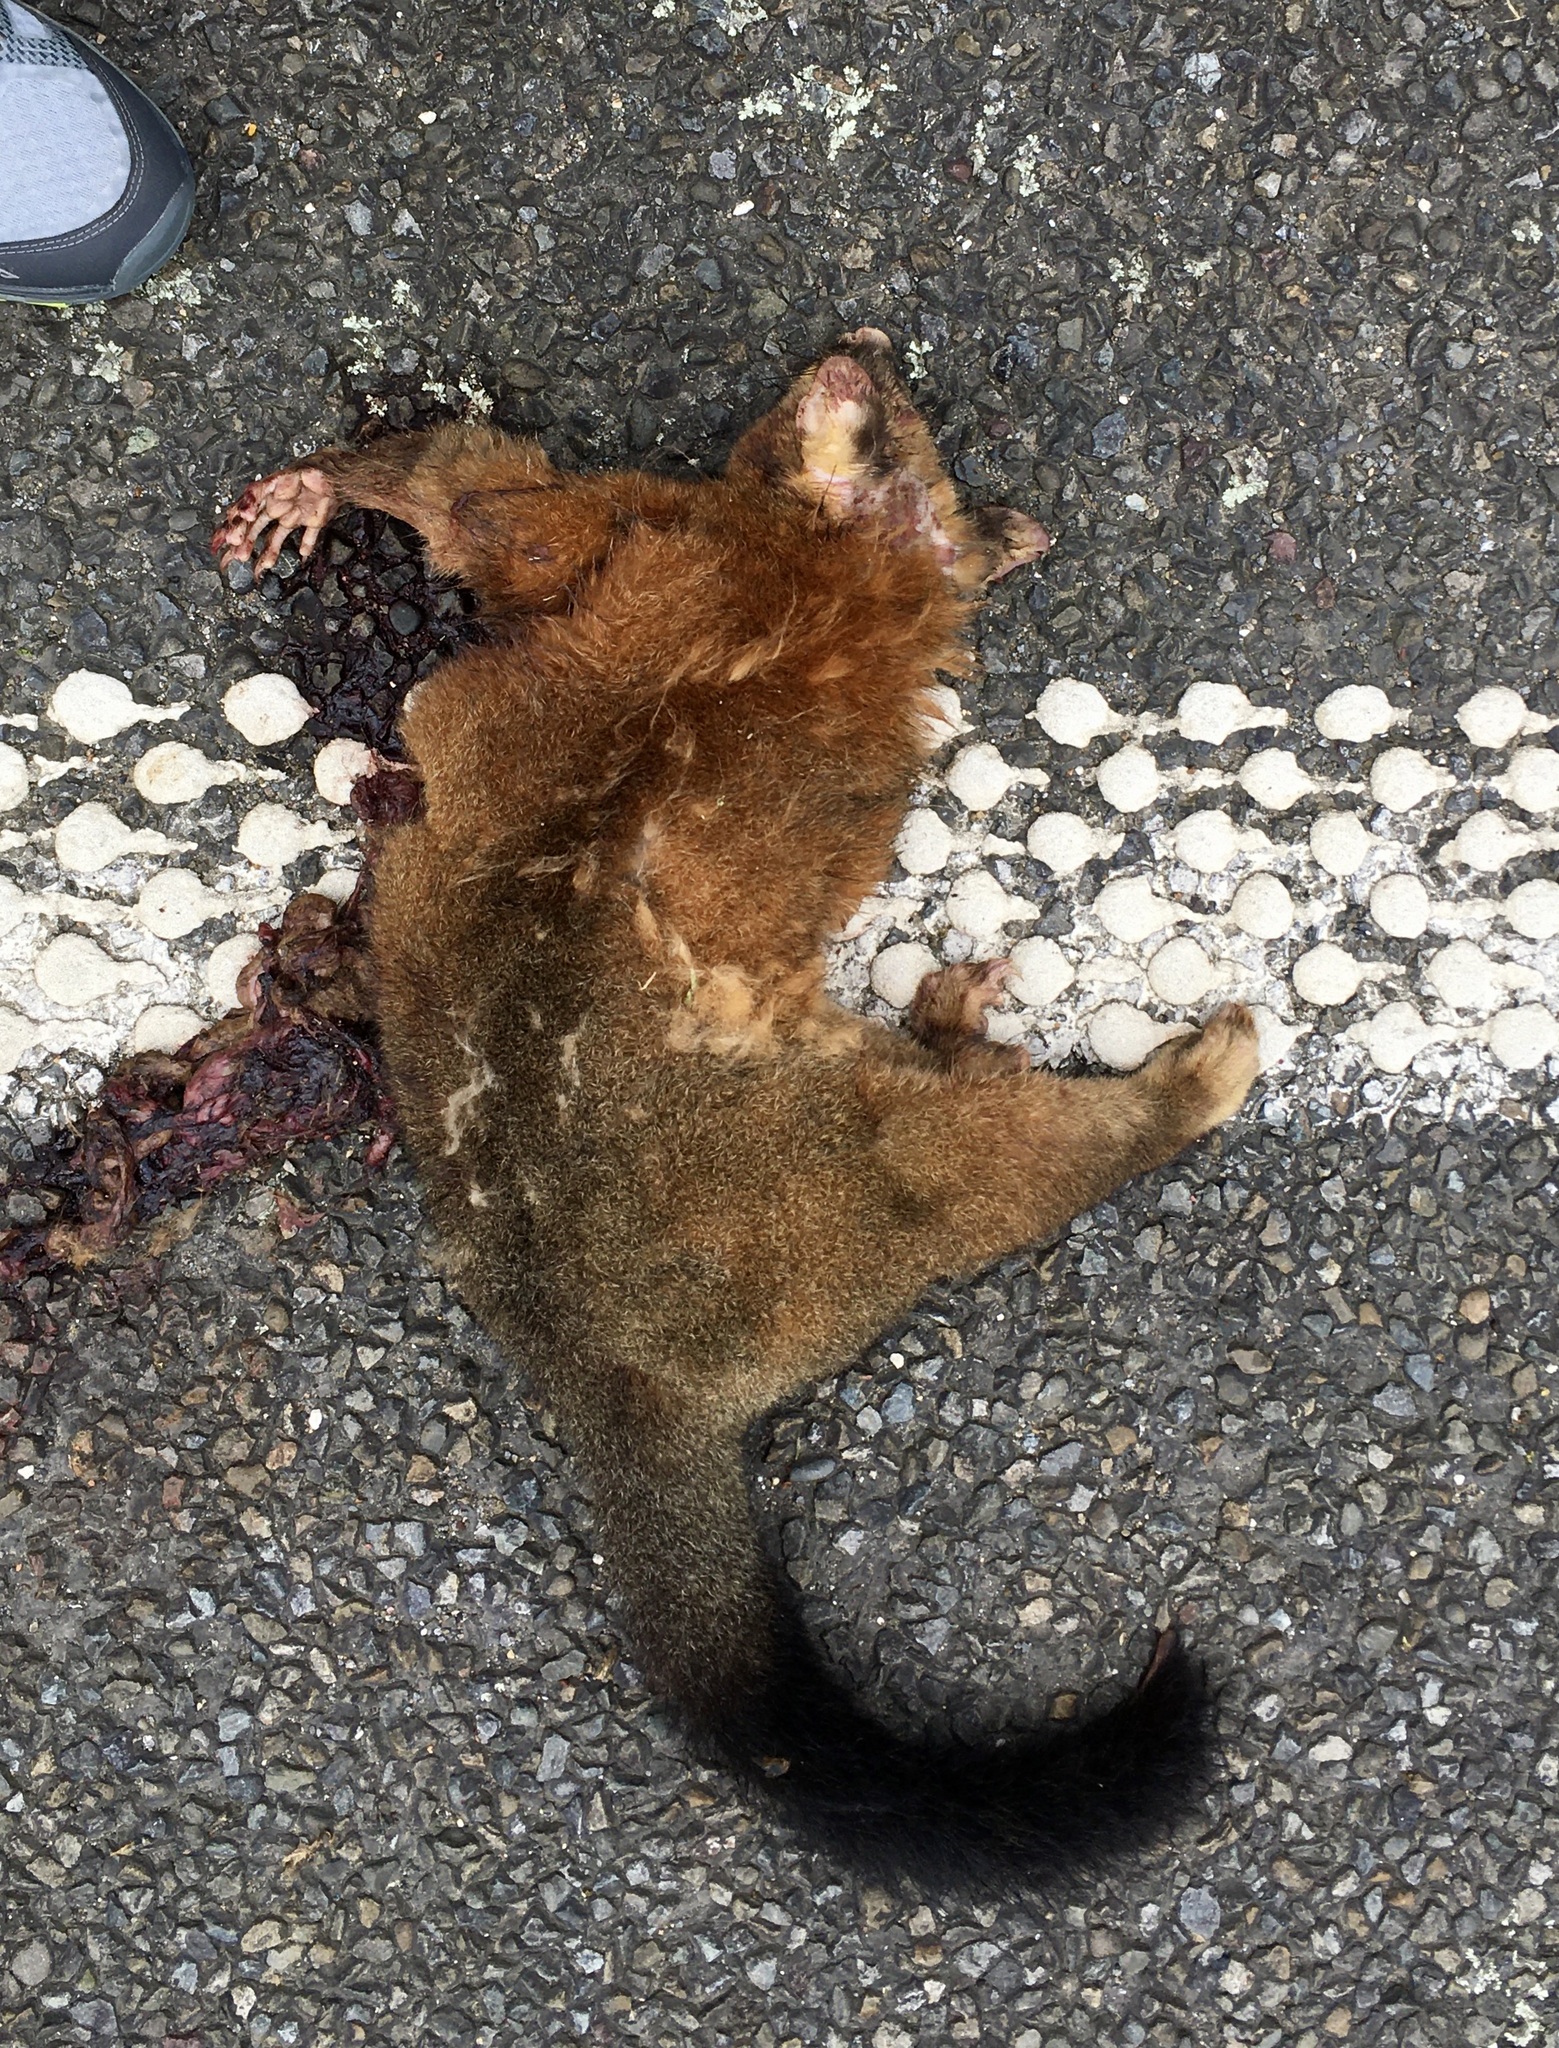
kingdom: Animalia
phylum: Chordata
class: Mammalia
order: Diprotodontia
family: Phalangeridae
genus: Trichosurus
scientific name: Trichosurus vulpecula
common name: Common brushtail
